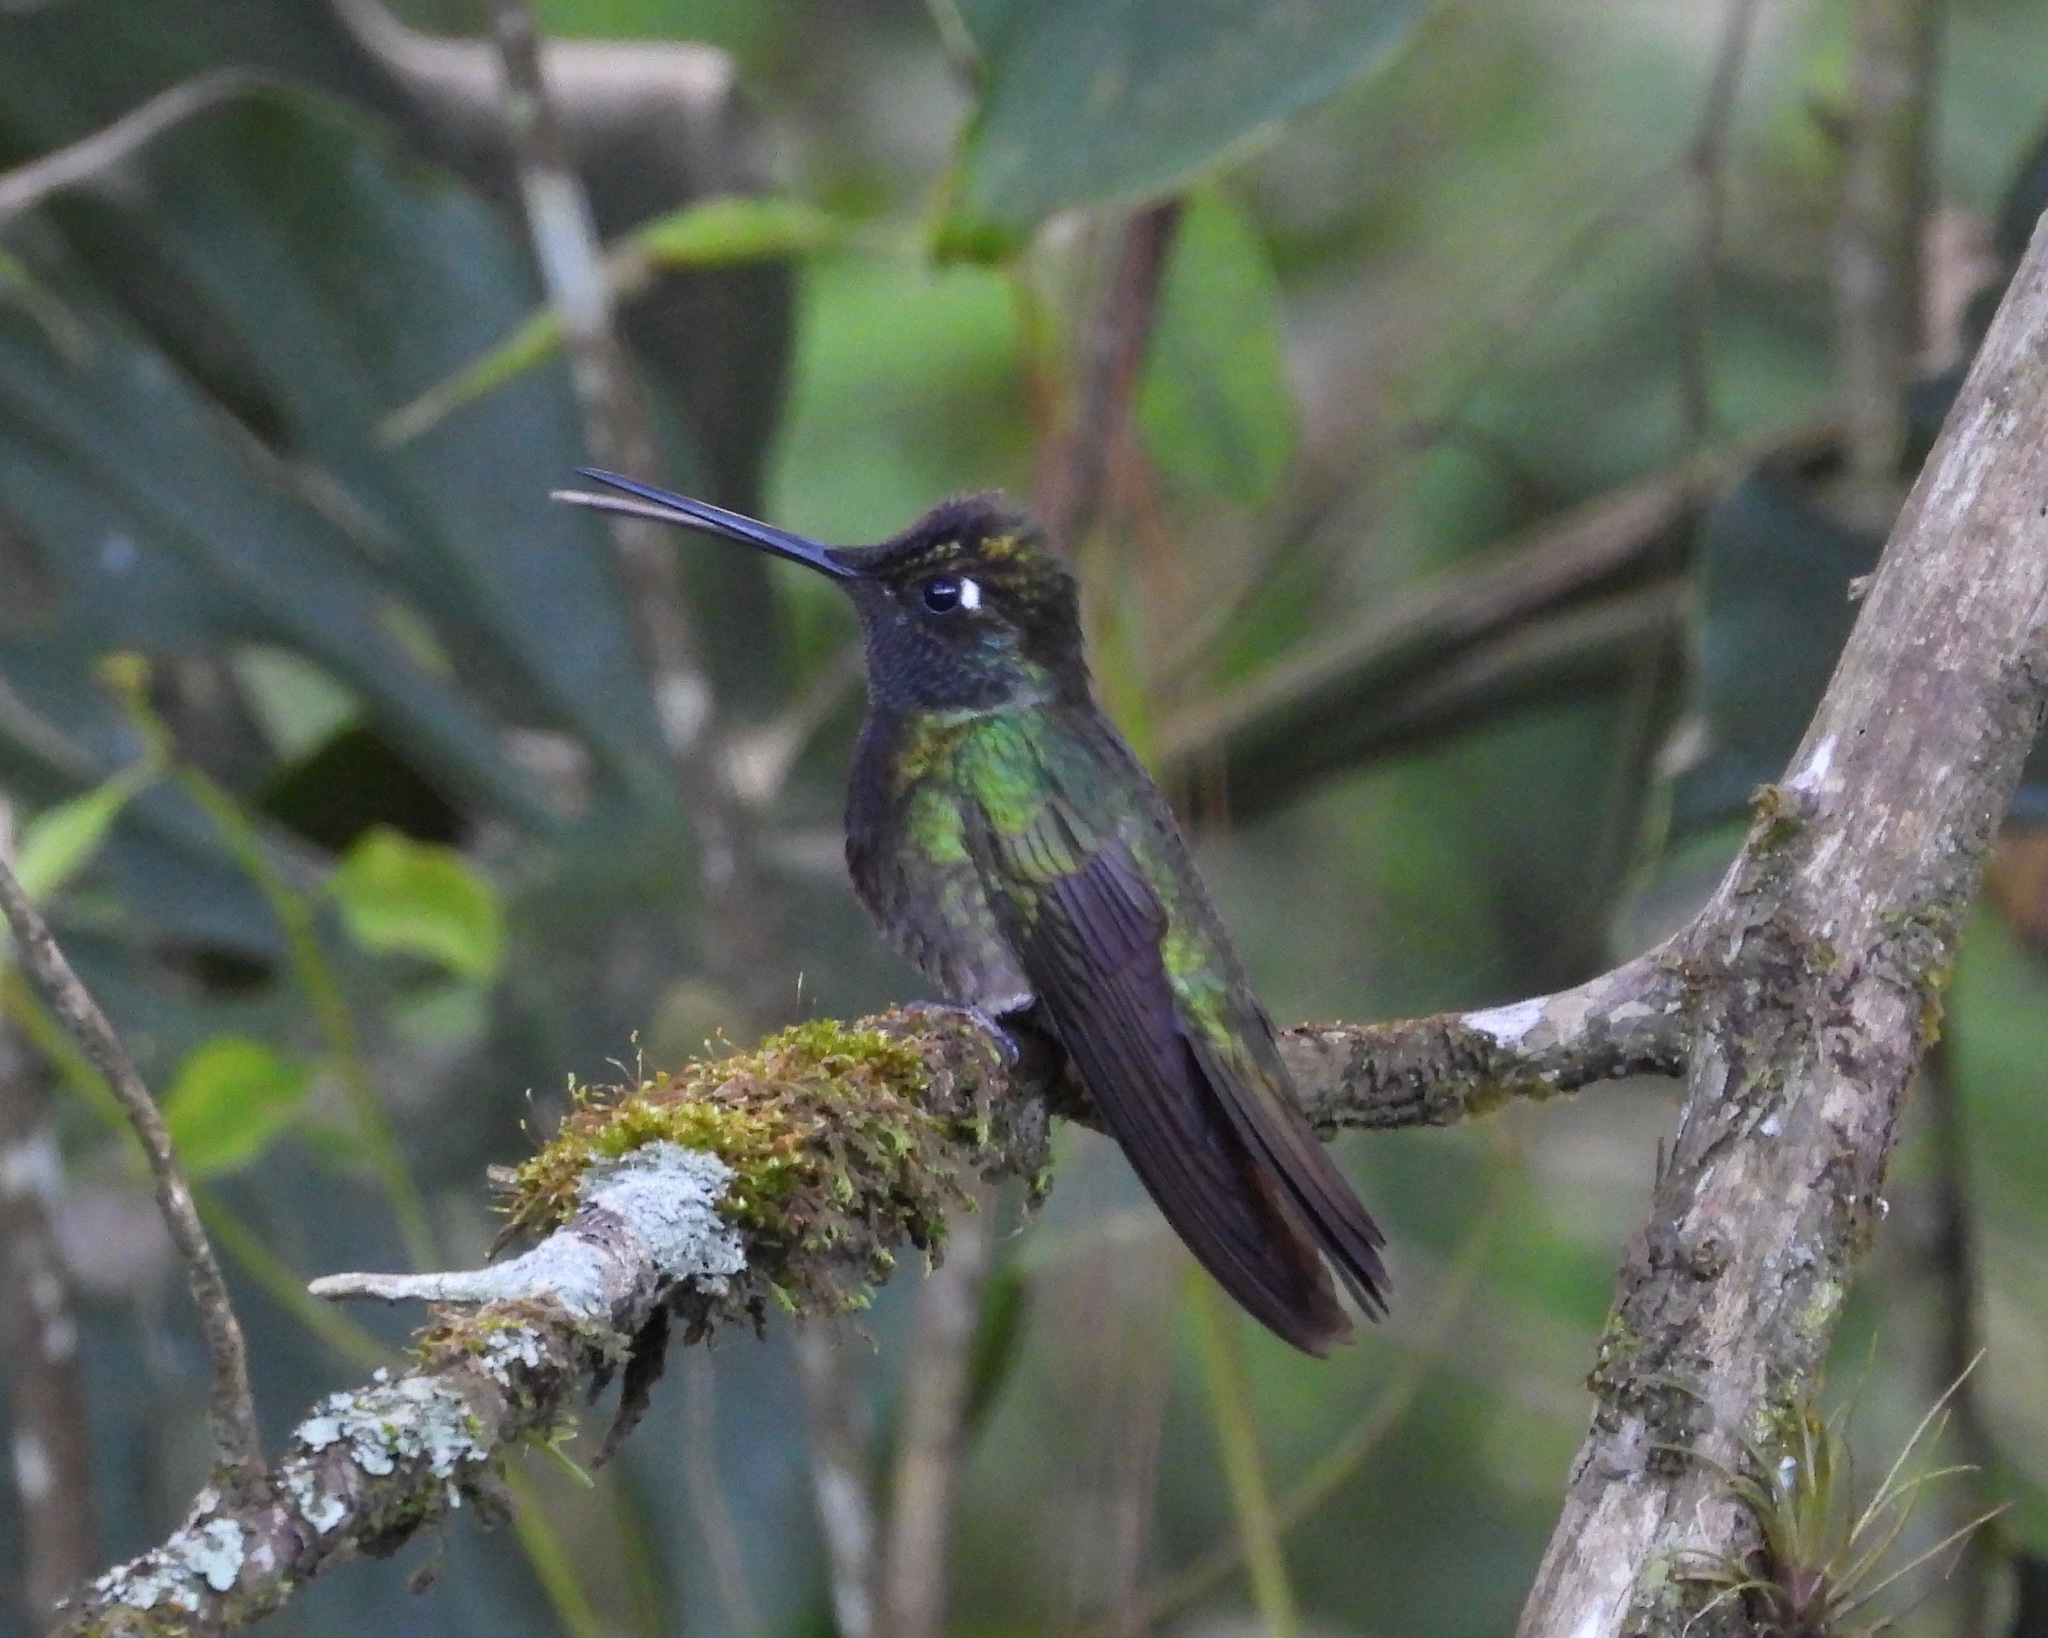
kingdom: Animalia
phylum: Chordata
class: Aves
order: Apodiformes
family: Trochilidae
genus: Eugenes
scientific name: Eugenes fulgens
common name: Magnificent hummingbird
